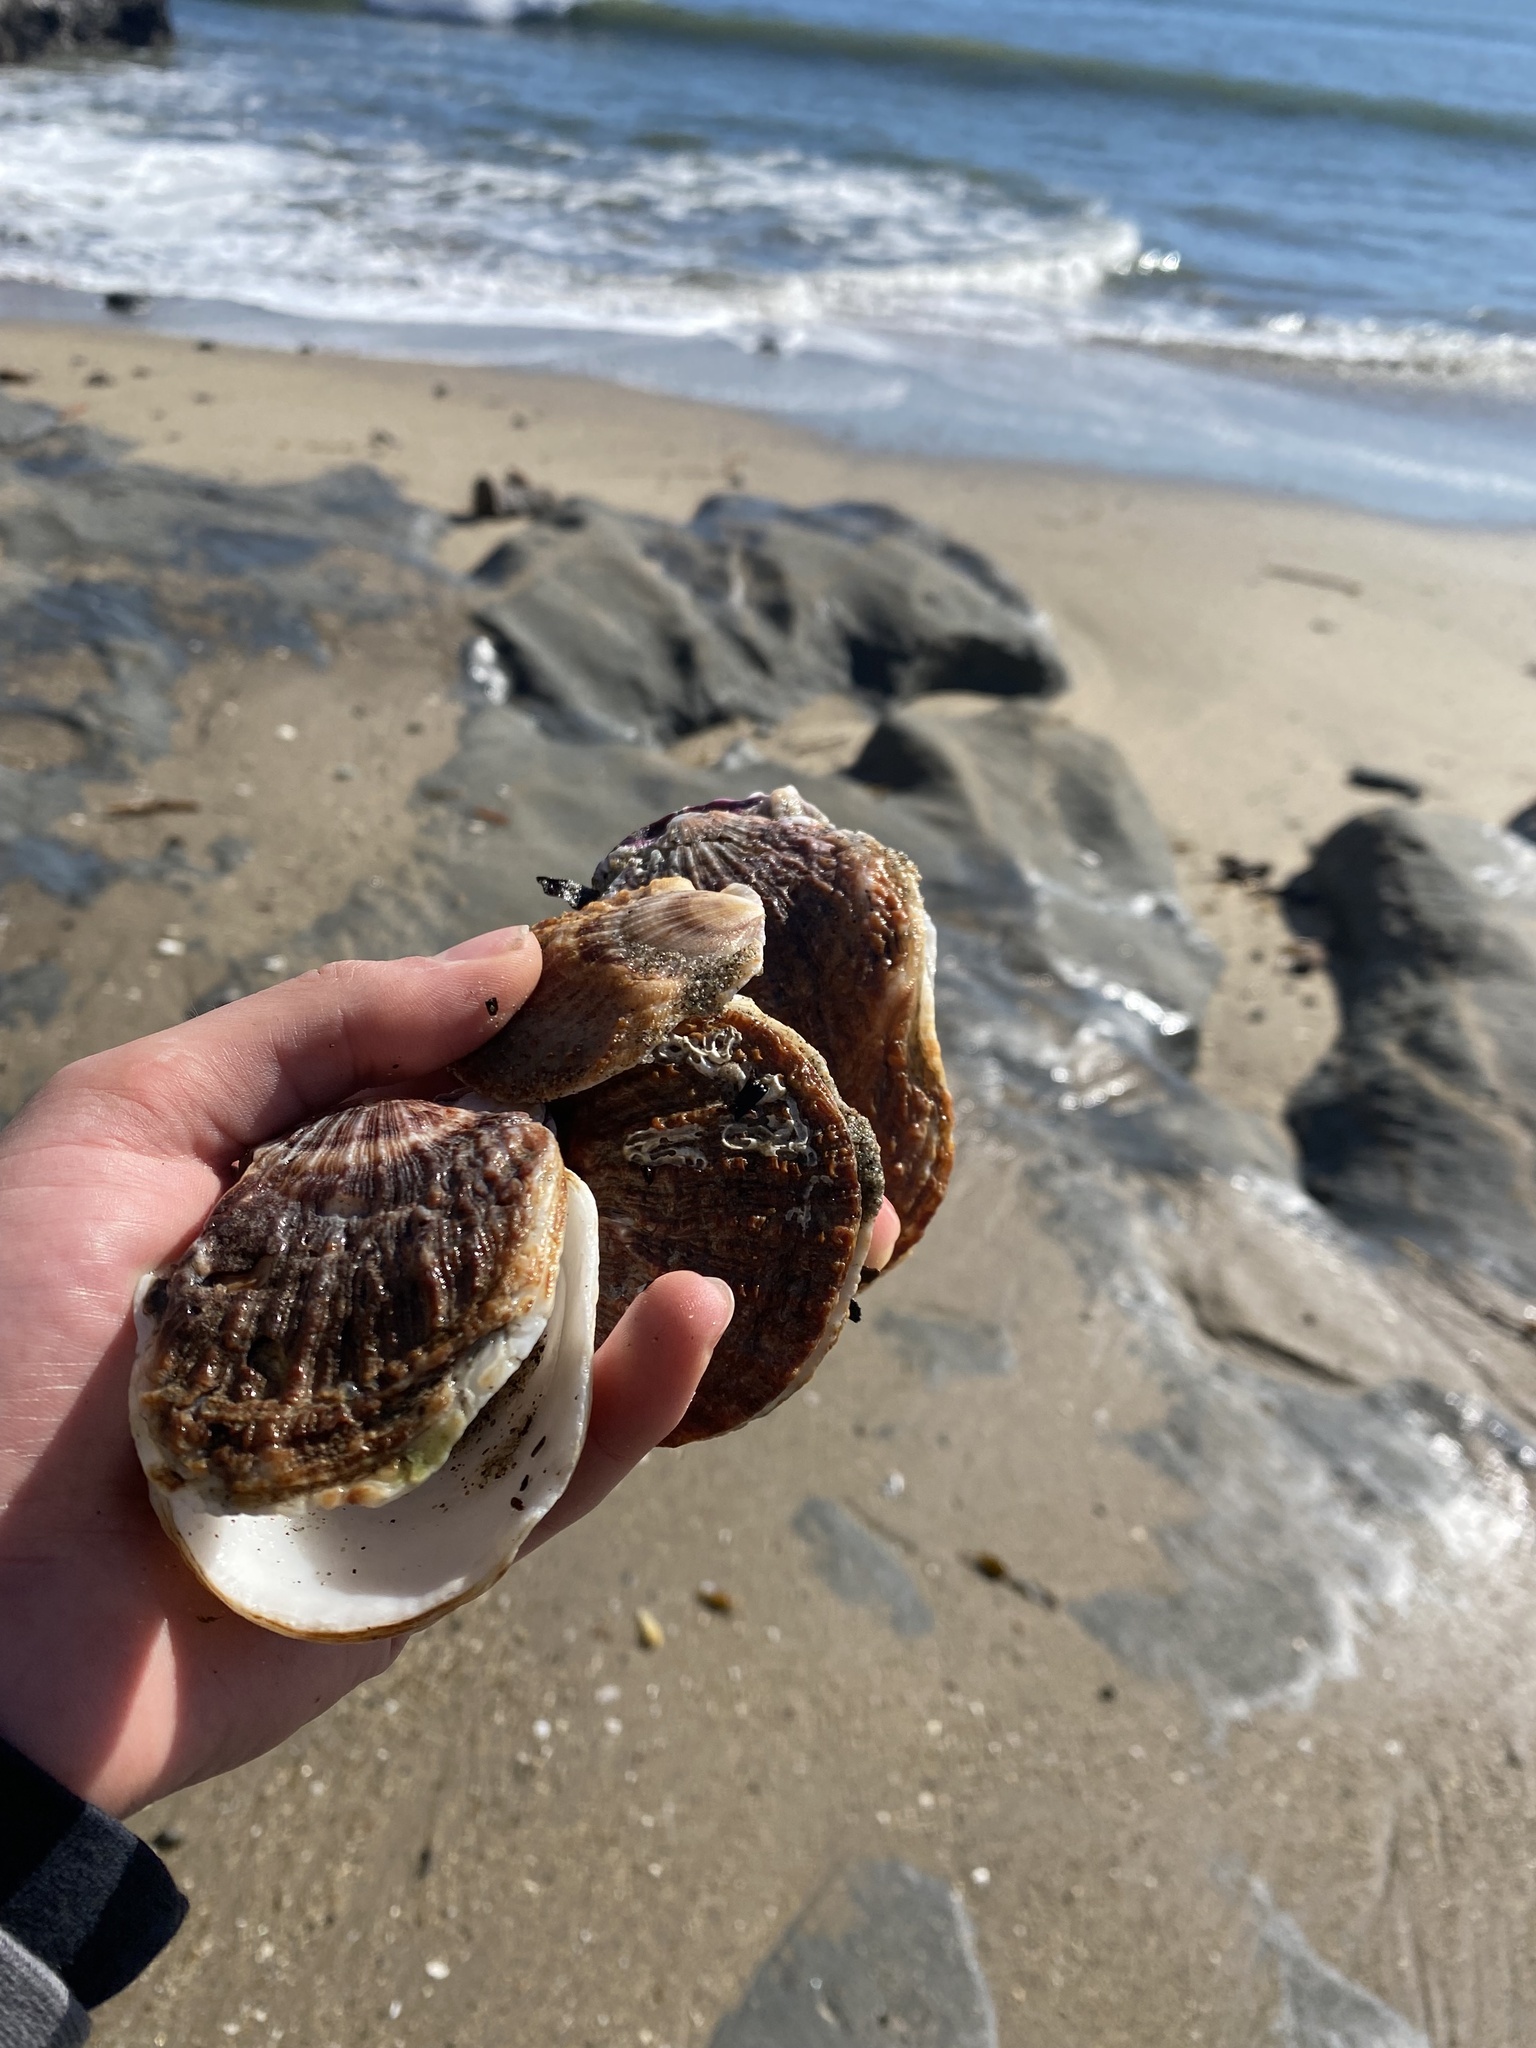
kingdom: Animalia
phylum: Mollusca
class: Bivalvia
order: Pectinida
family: Pectinidae
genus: Crassadoma
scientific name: Crassadoma gigantea
